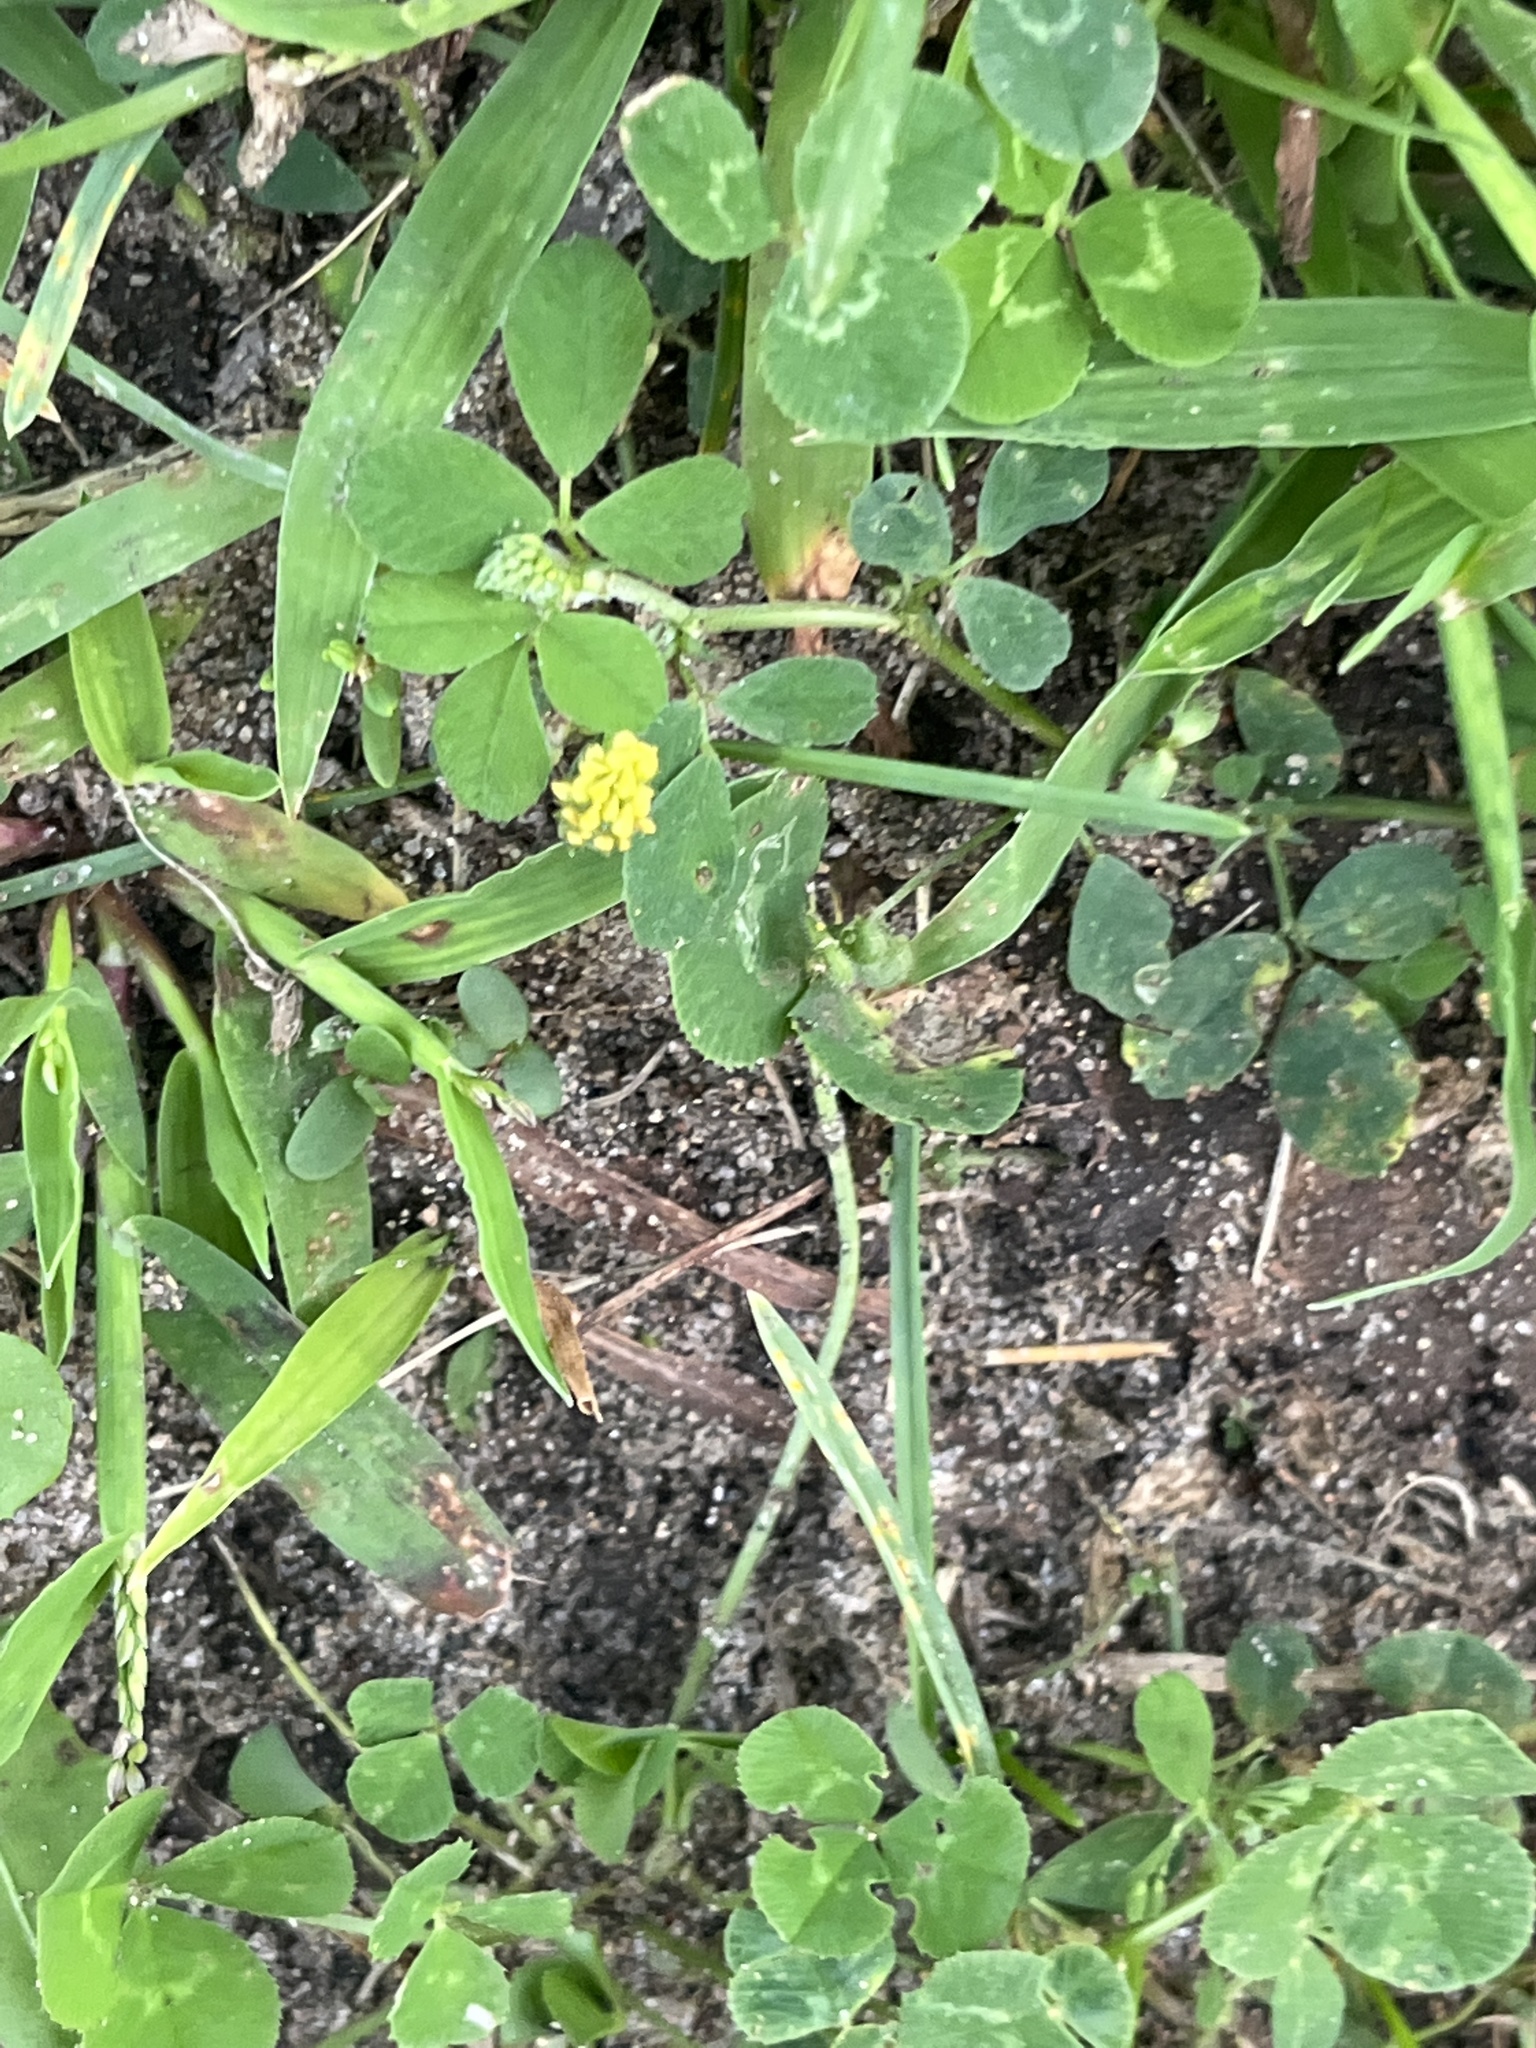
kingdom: Plantae
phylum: Tracheophyta
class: Magnoliopsida
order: Fabales
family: Fabaceae
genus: Medicago
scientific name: Medicago lupulina
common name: Black medick
